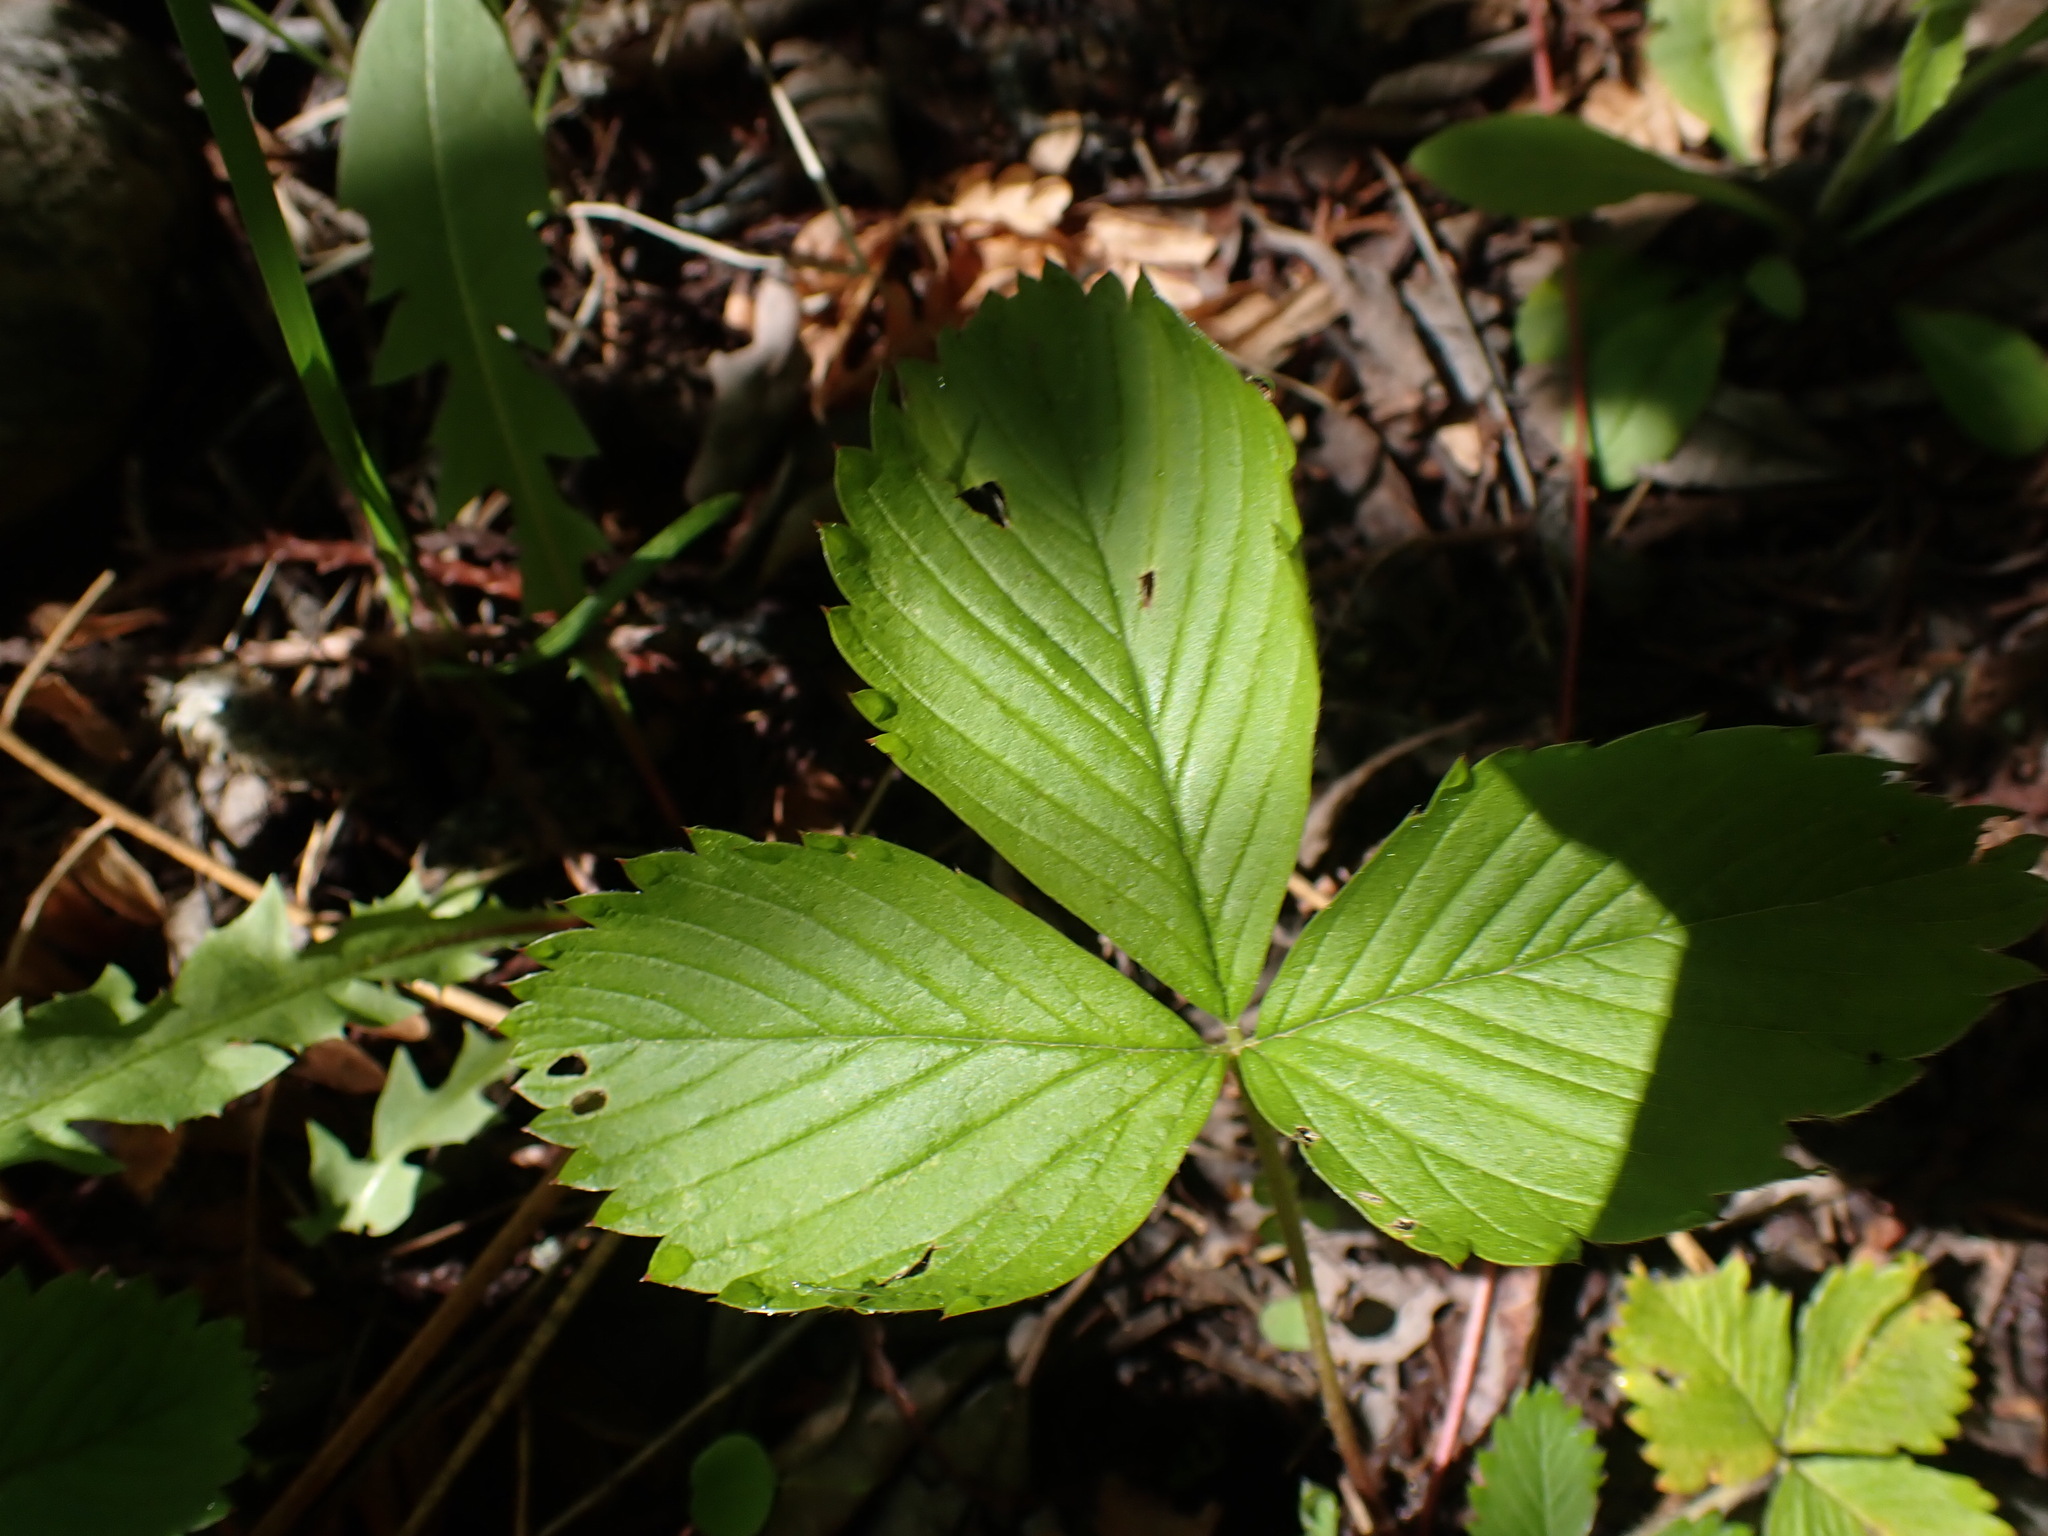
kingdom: Plantae
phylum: Tracheophyta
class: Magnoliopsida
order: Rosales
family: Rosaceae
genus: Fragaria
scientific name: Fragaria virginiana
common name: Thickleaved wild strawberry
